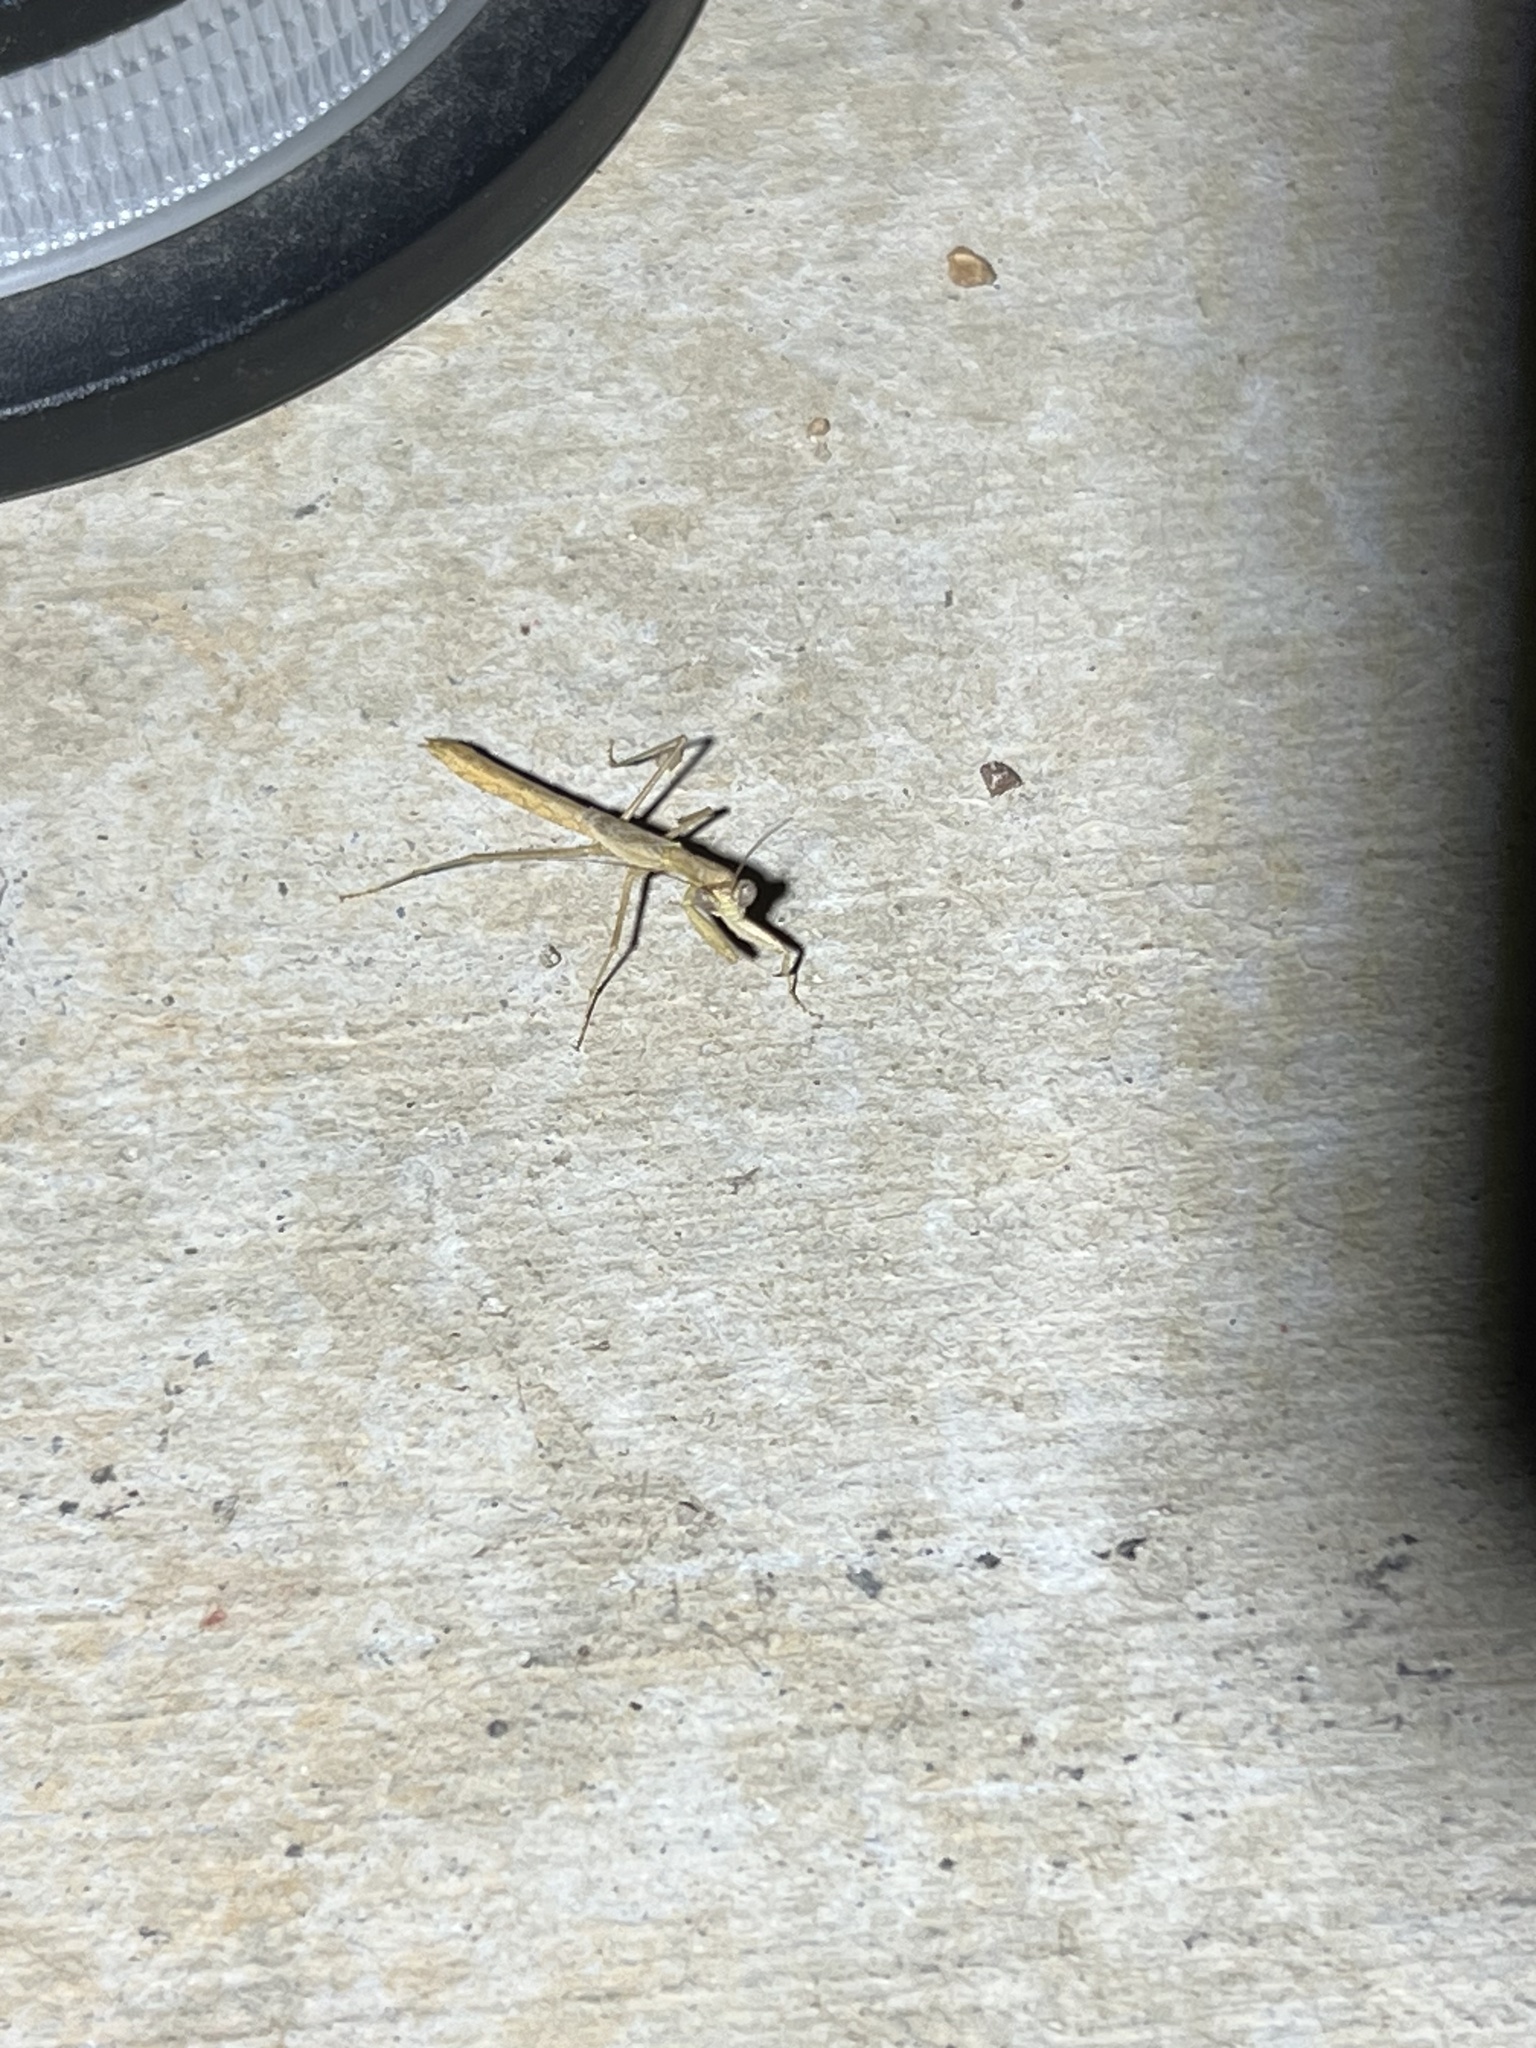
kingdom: Animalia
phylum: Arthropoda
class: Insecta
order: Mantodea
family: Amelidae
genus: Litaneutria
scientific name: Litaneutria skinneri
